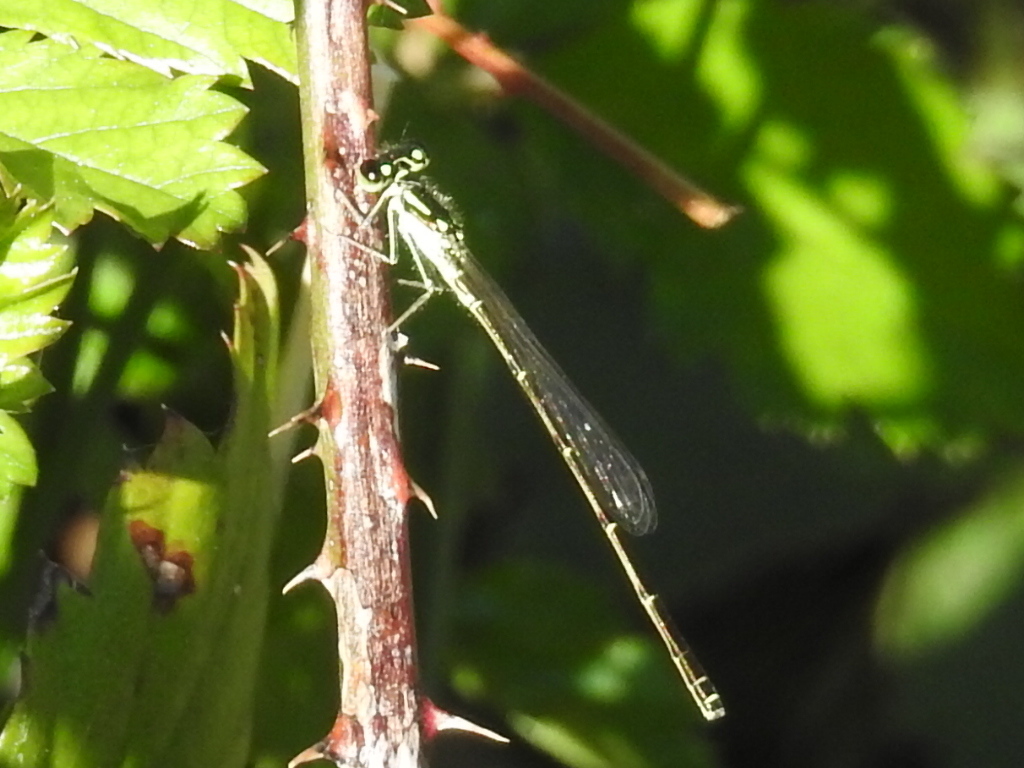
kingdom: Animalia
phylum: Arthropoda
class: Insecta
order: Odonata
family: Coenagrionidae
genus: Ischnura
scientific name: Ischnura posita
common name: Fragile forktail
